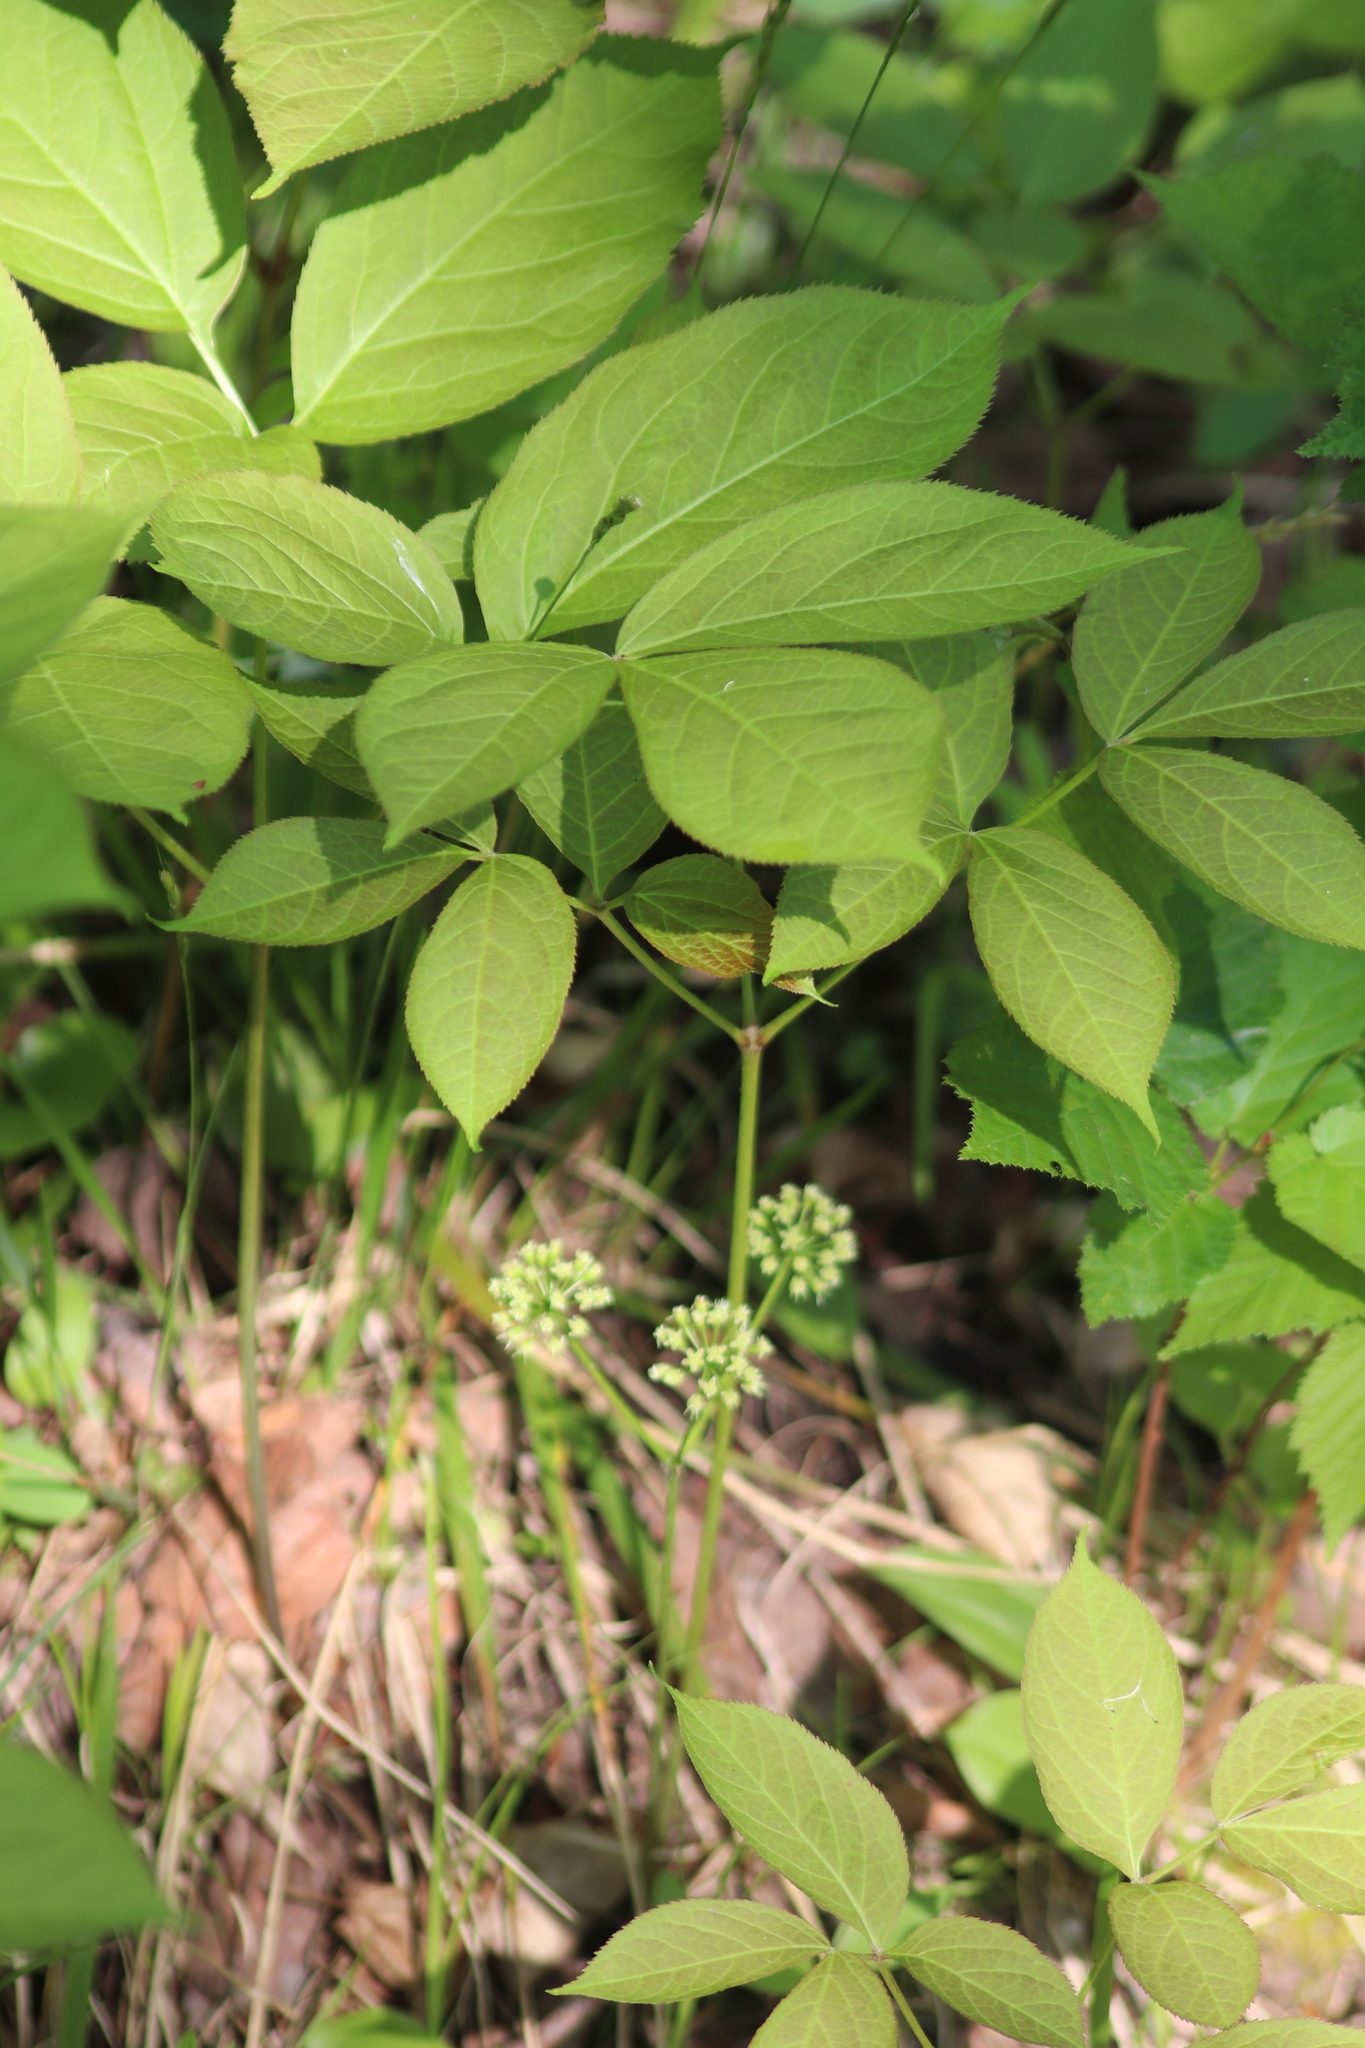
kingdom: Plantae
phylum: Tracheophyta
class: Magnoliopsida
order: Apiales
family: Araliaceae
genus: Aralia
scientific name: Aralia nudicaulis
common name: Wild sarsaparilla
